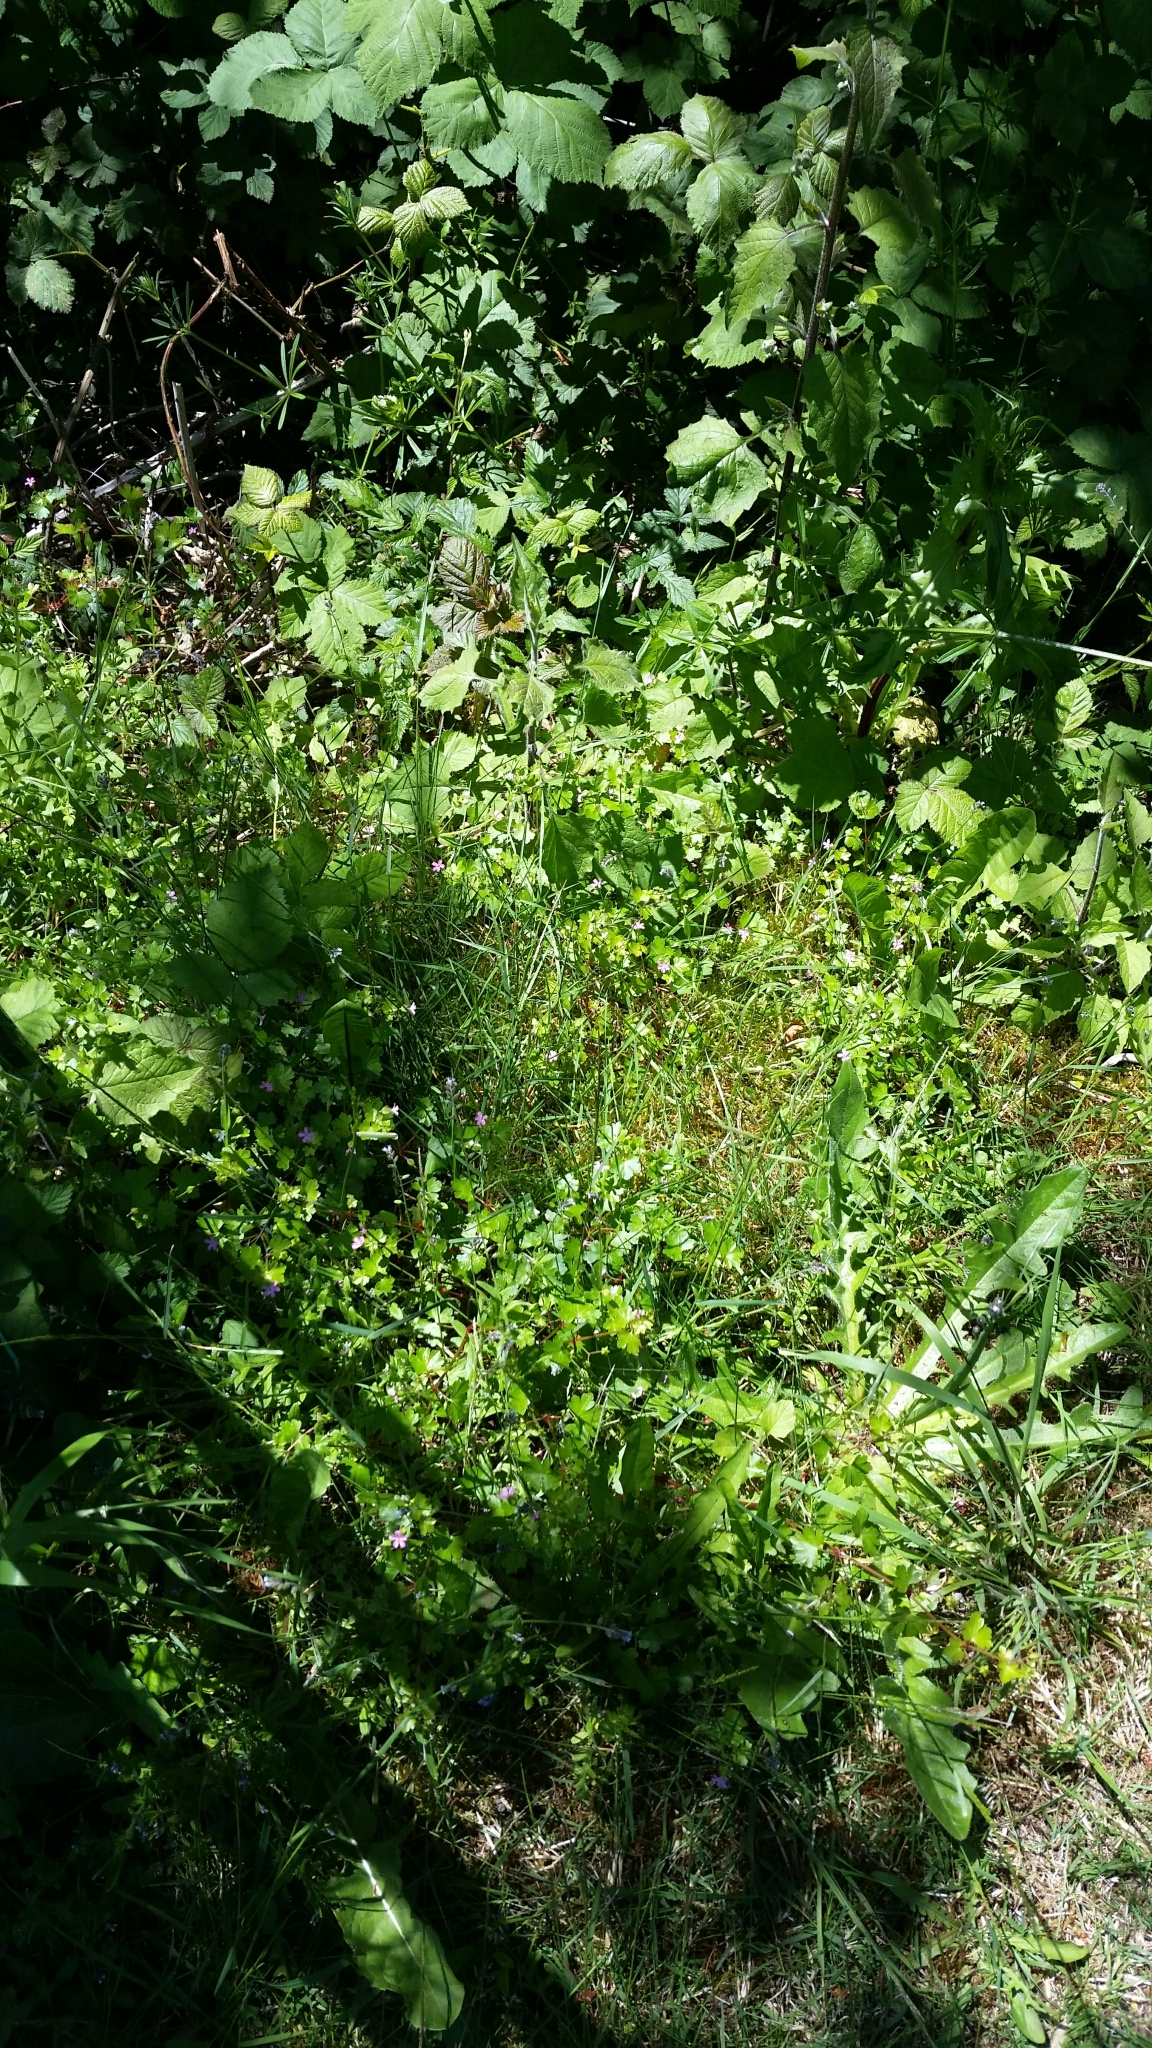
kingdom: Plantae
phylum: Tracheophyta
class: Magnoliopsida
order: Geraniales
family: Geraniaceae
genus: Geranium
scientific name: Geranium lucidum
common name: Shining crane's-bill
